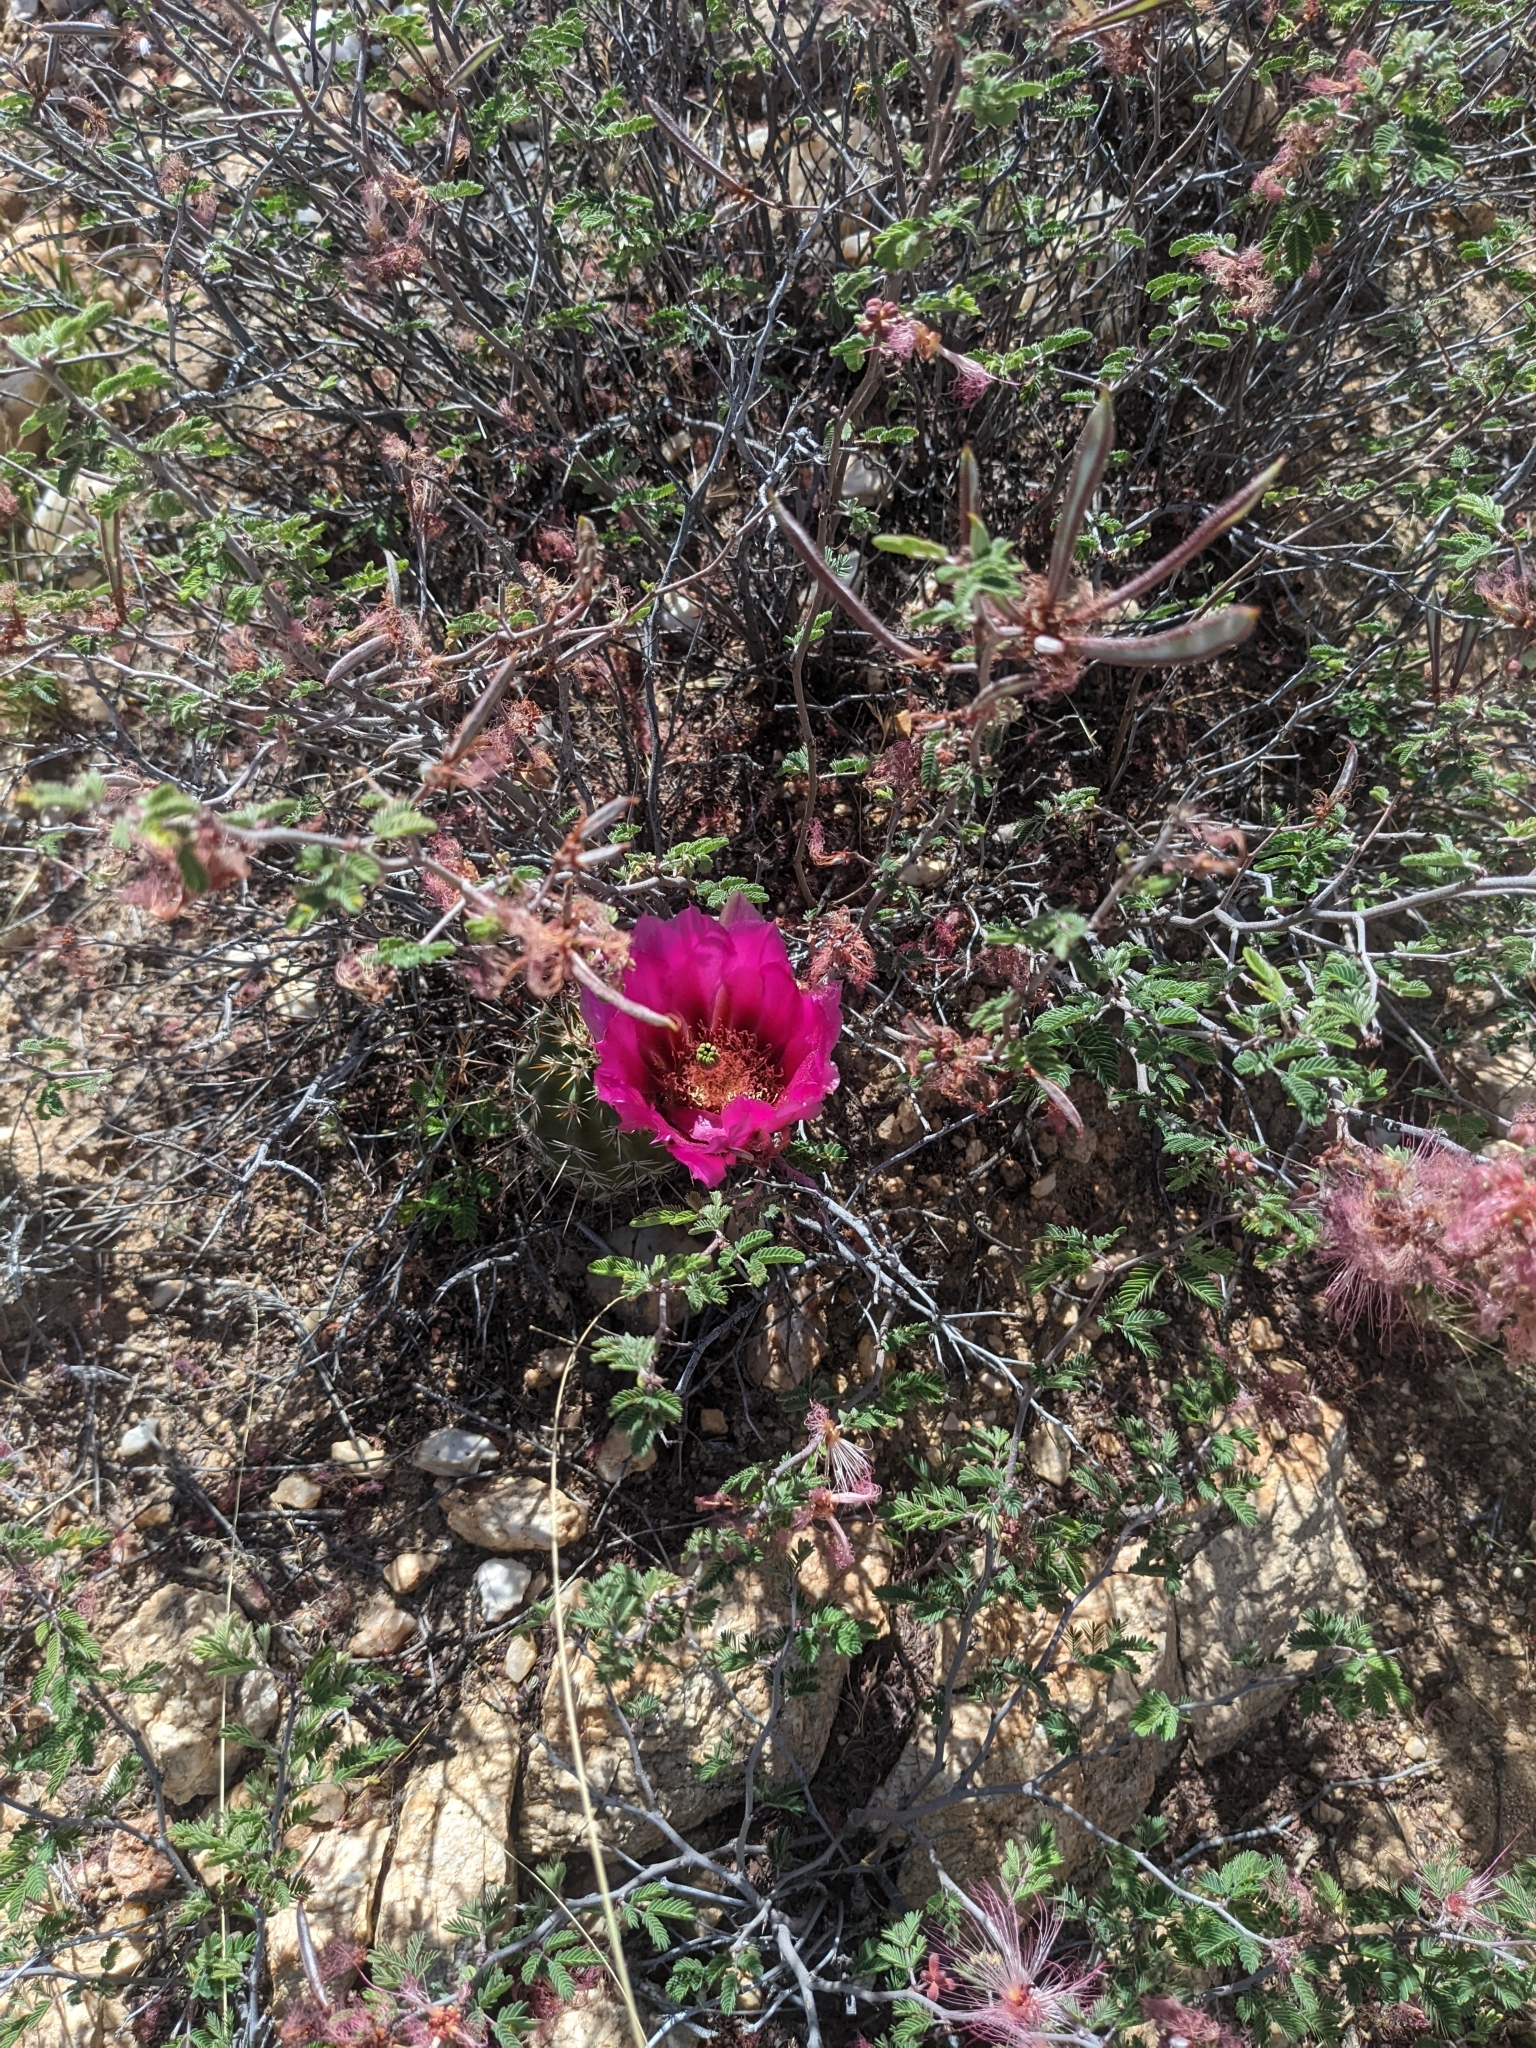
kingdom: Plantae
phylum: Tracheophyta
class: Magnoliopsida
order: Caryophyllales
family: Cactaceae
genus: Echinocereus
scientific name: Echinocereus fasciculatus
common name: Bundle hedgehog
